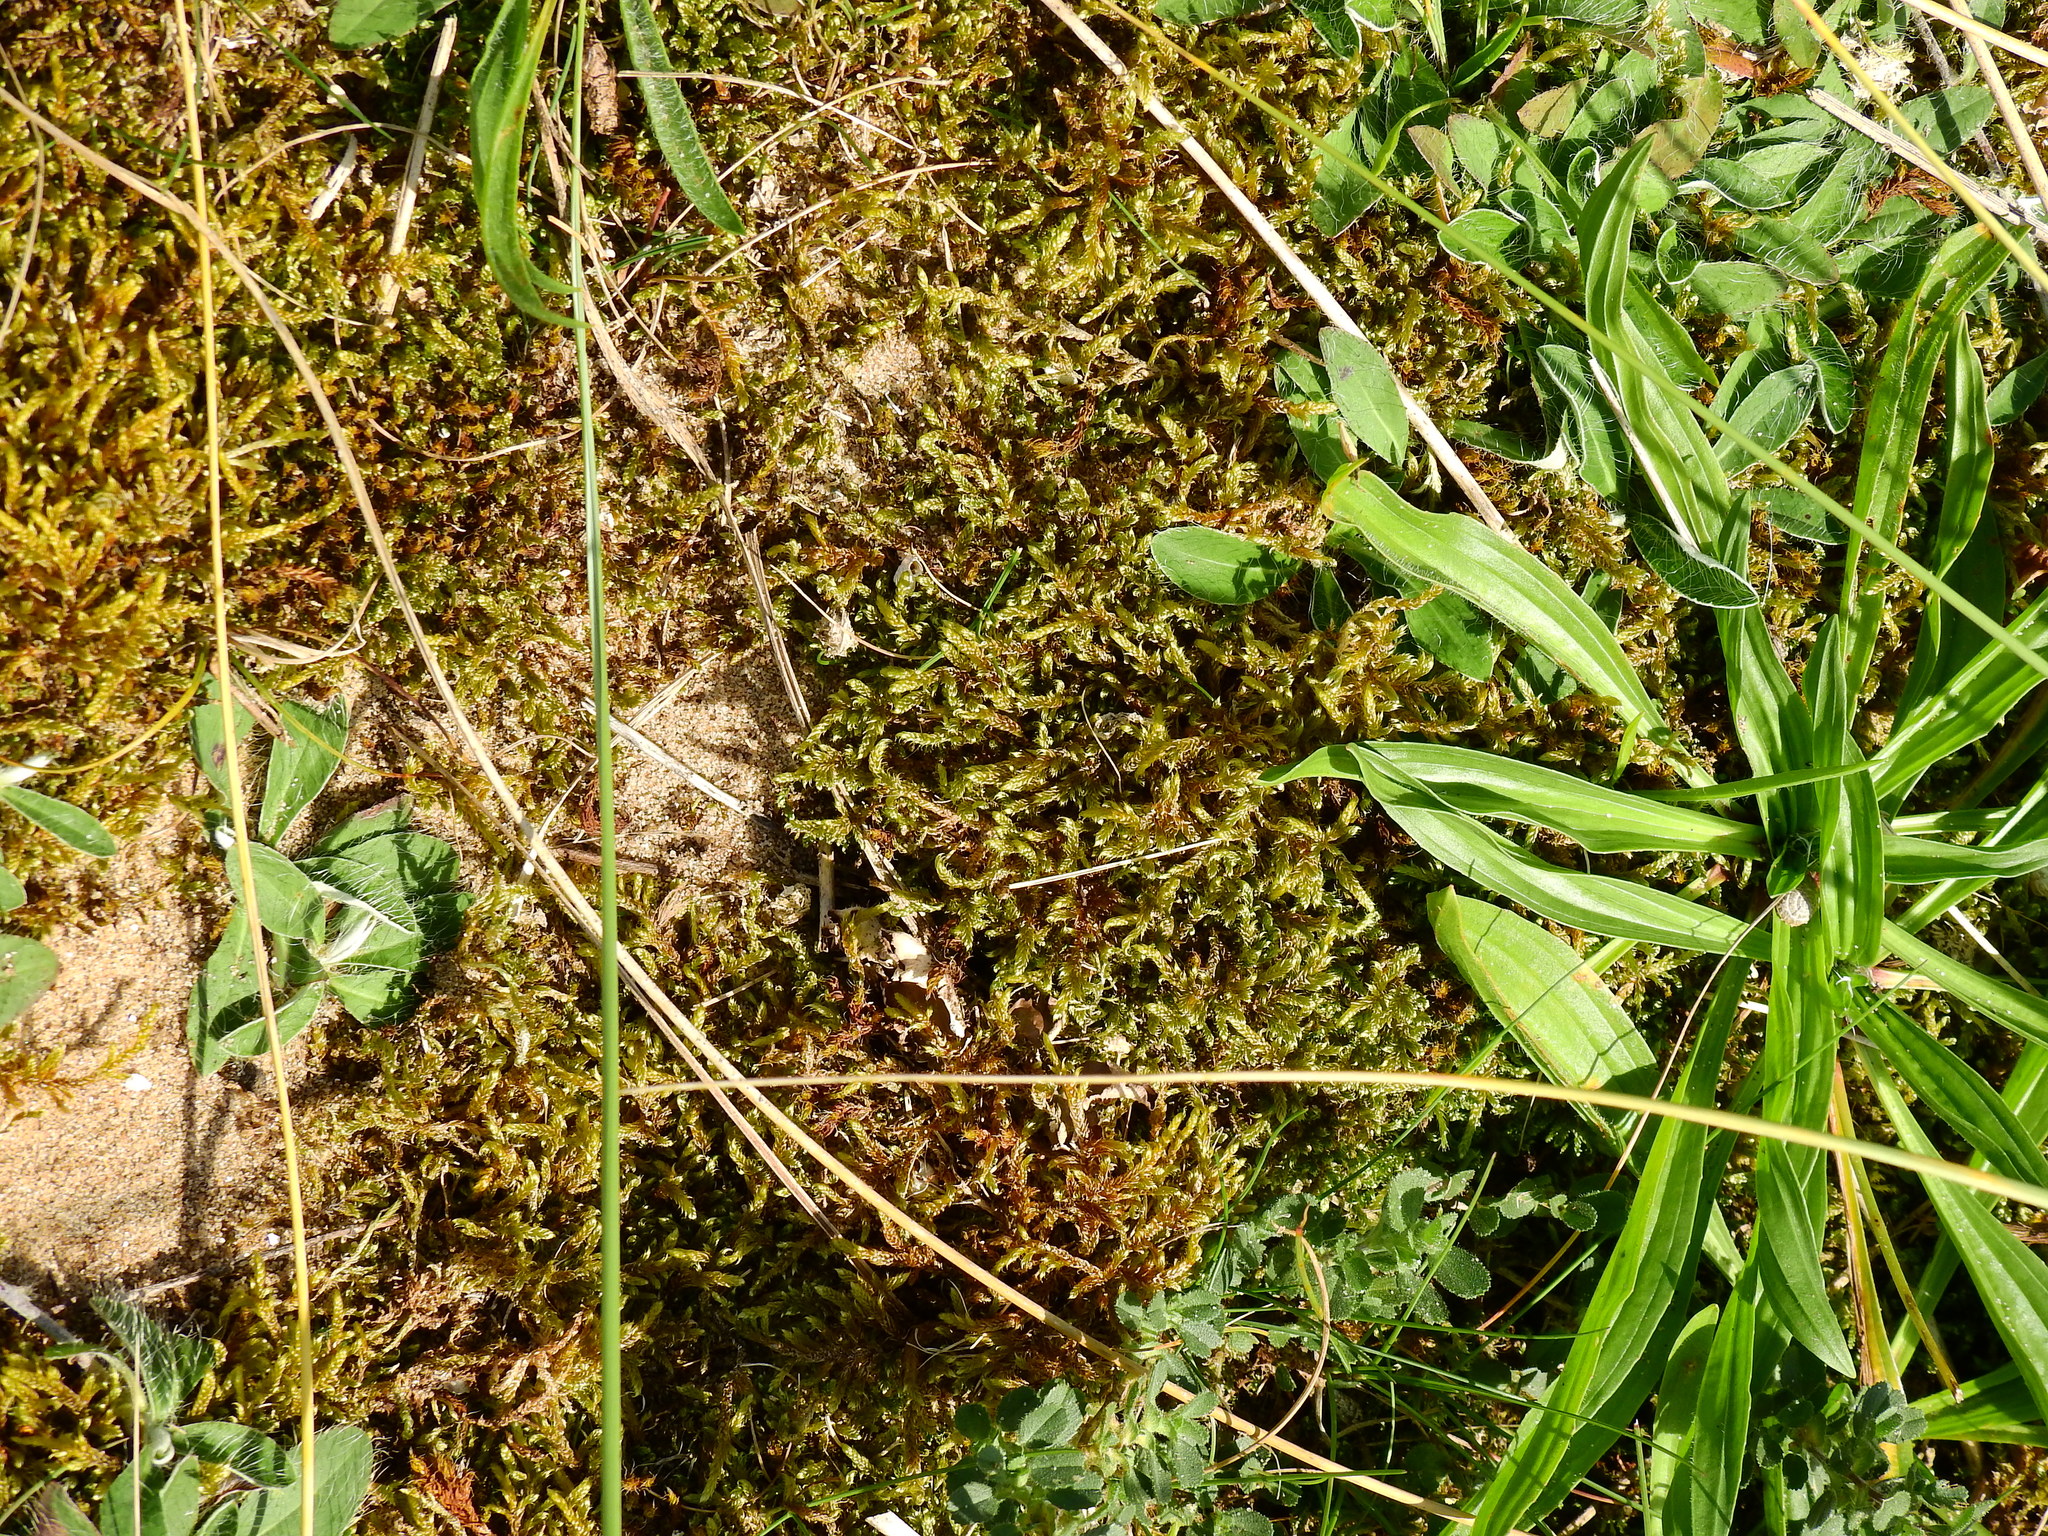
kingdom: Plantae
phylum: Bryophyta
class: Bryopsida
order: Hypnales
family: Hypnaceae
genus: Hypnum
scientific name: Hypnum cupressiforme
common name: Cypress-leaved plait-moss
